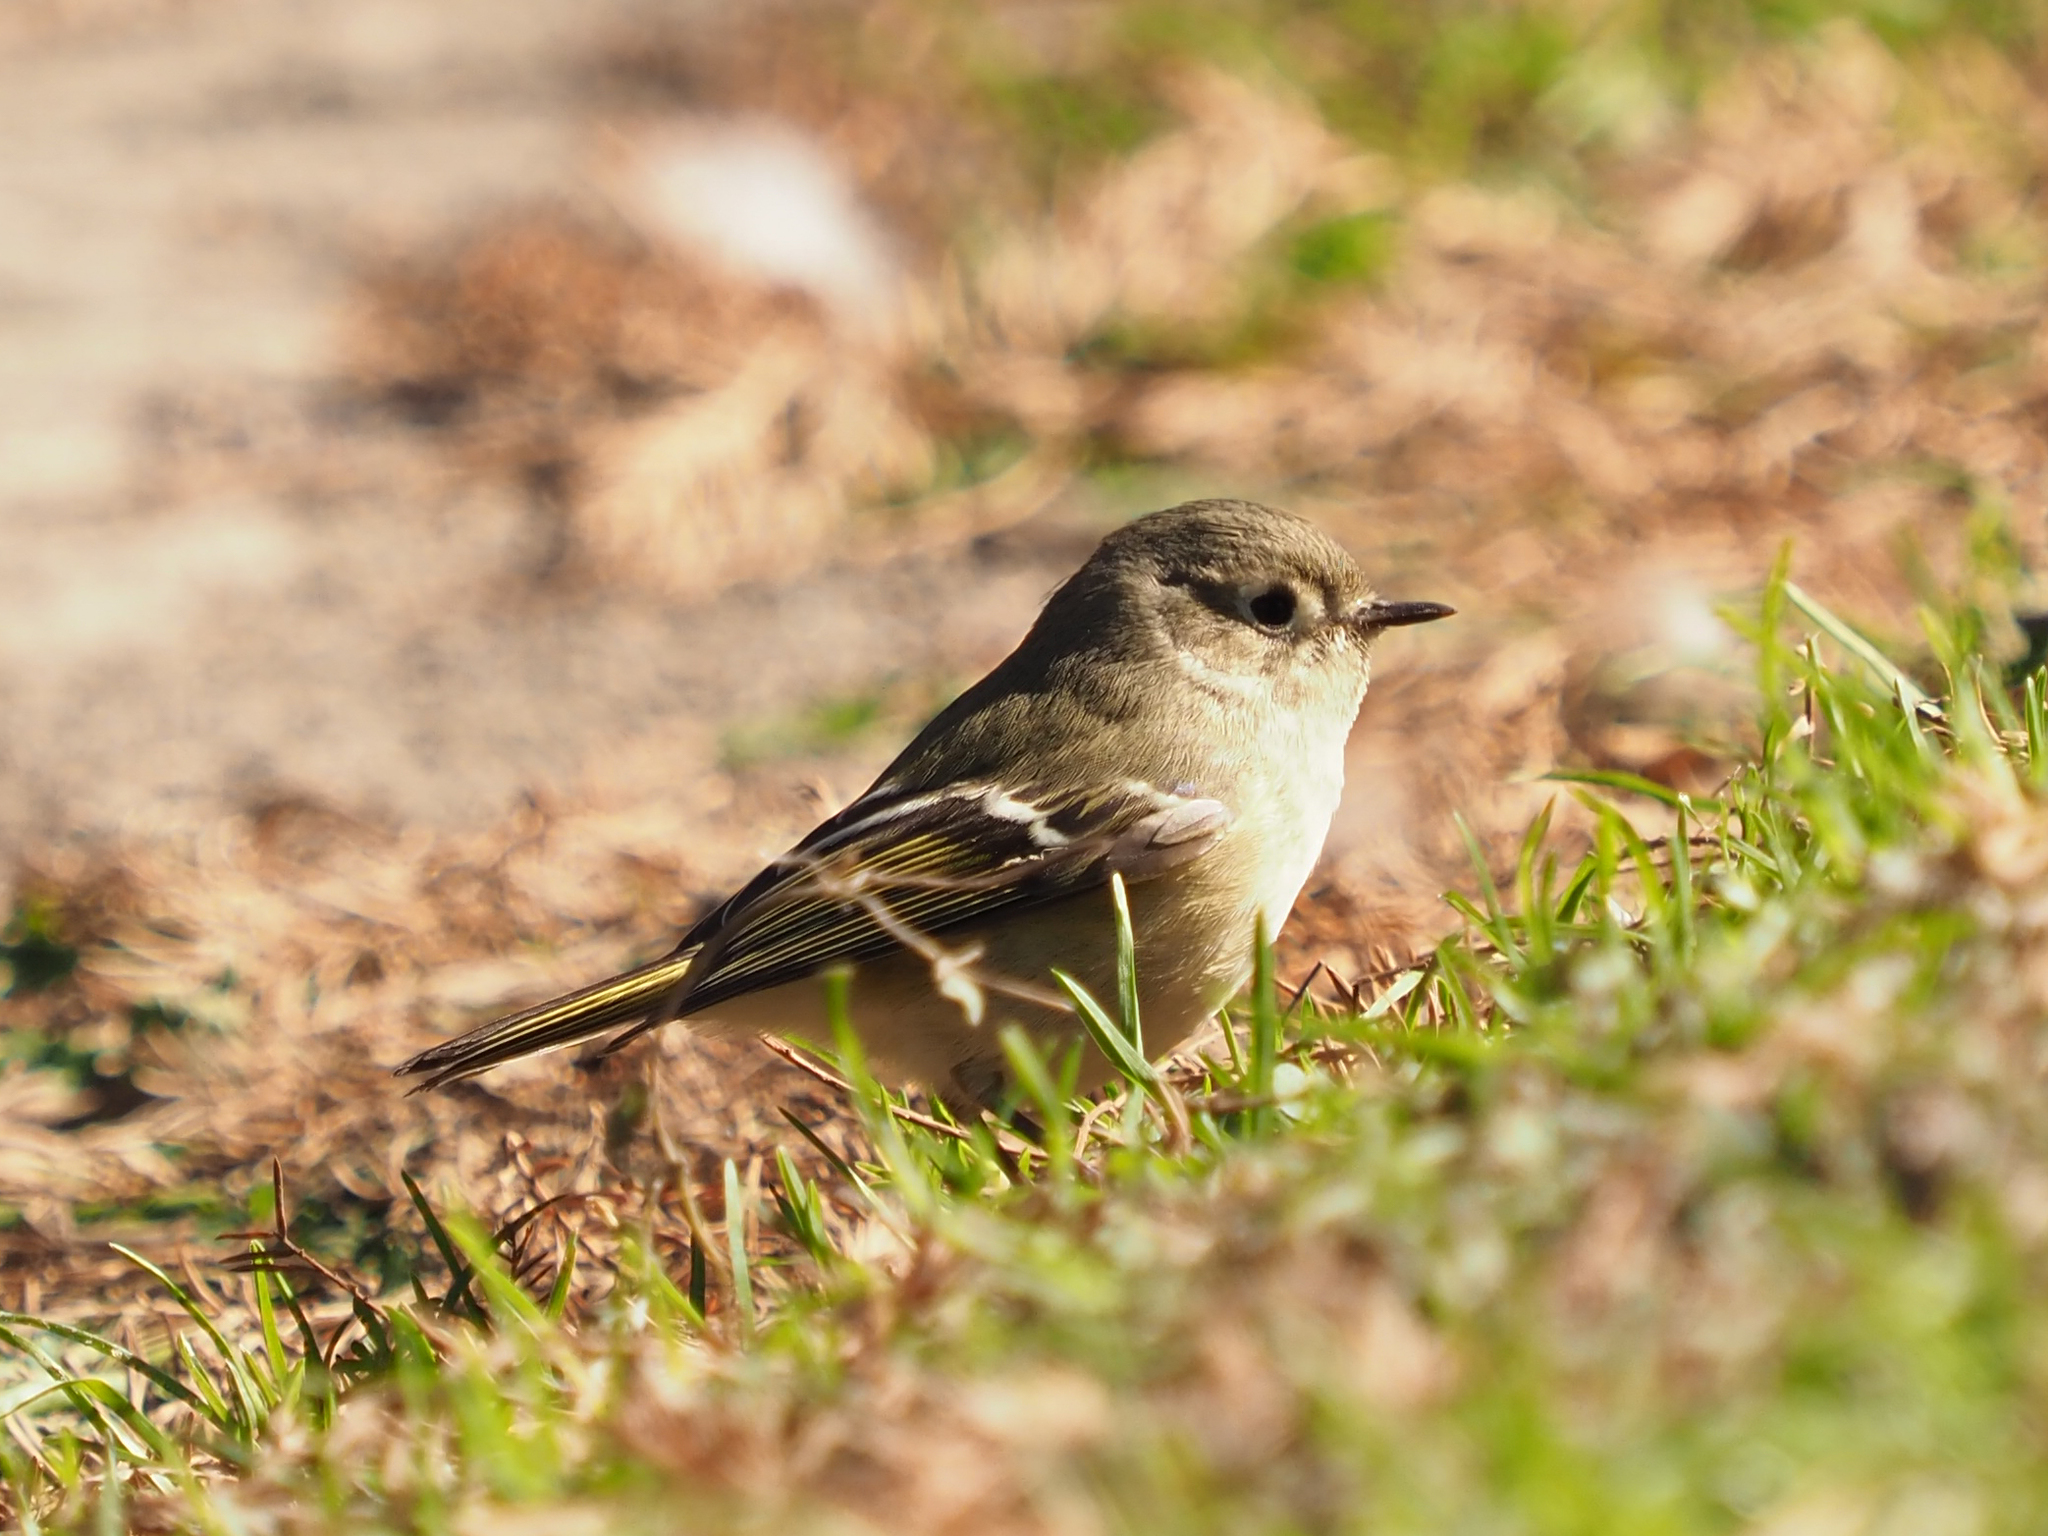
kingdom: Animalia
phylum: Chordata
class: Aves
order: Passeriformes
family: Regulidae
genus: Regulus
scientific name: Regulus calendula
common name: Ruby-crowned kinglet
